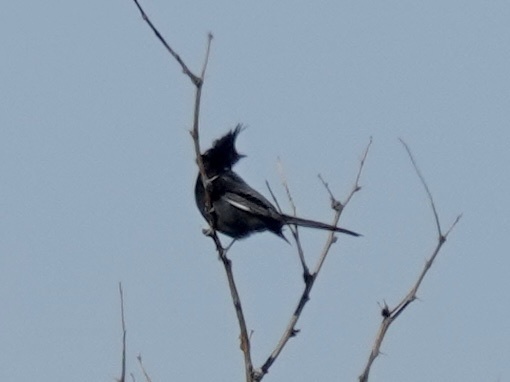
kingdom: Animalia
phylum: Chordata
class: Aves
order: Passeriformes
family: Ptilogonatidae
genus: Phainopepla
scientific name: Phainopepla nitens
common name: Phainopepla
